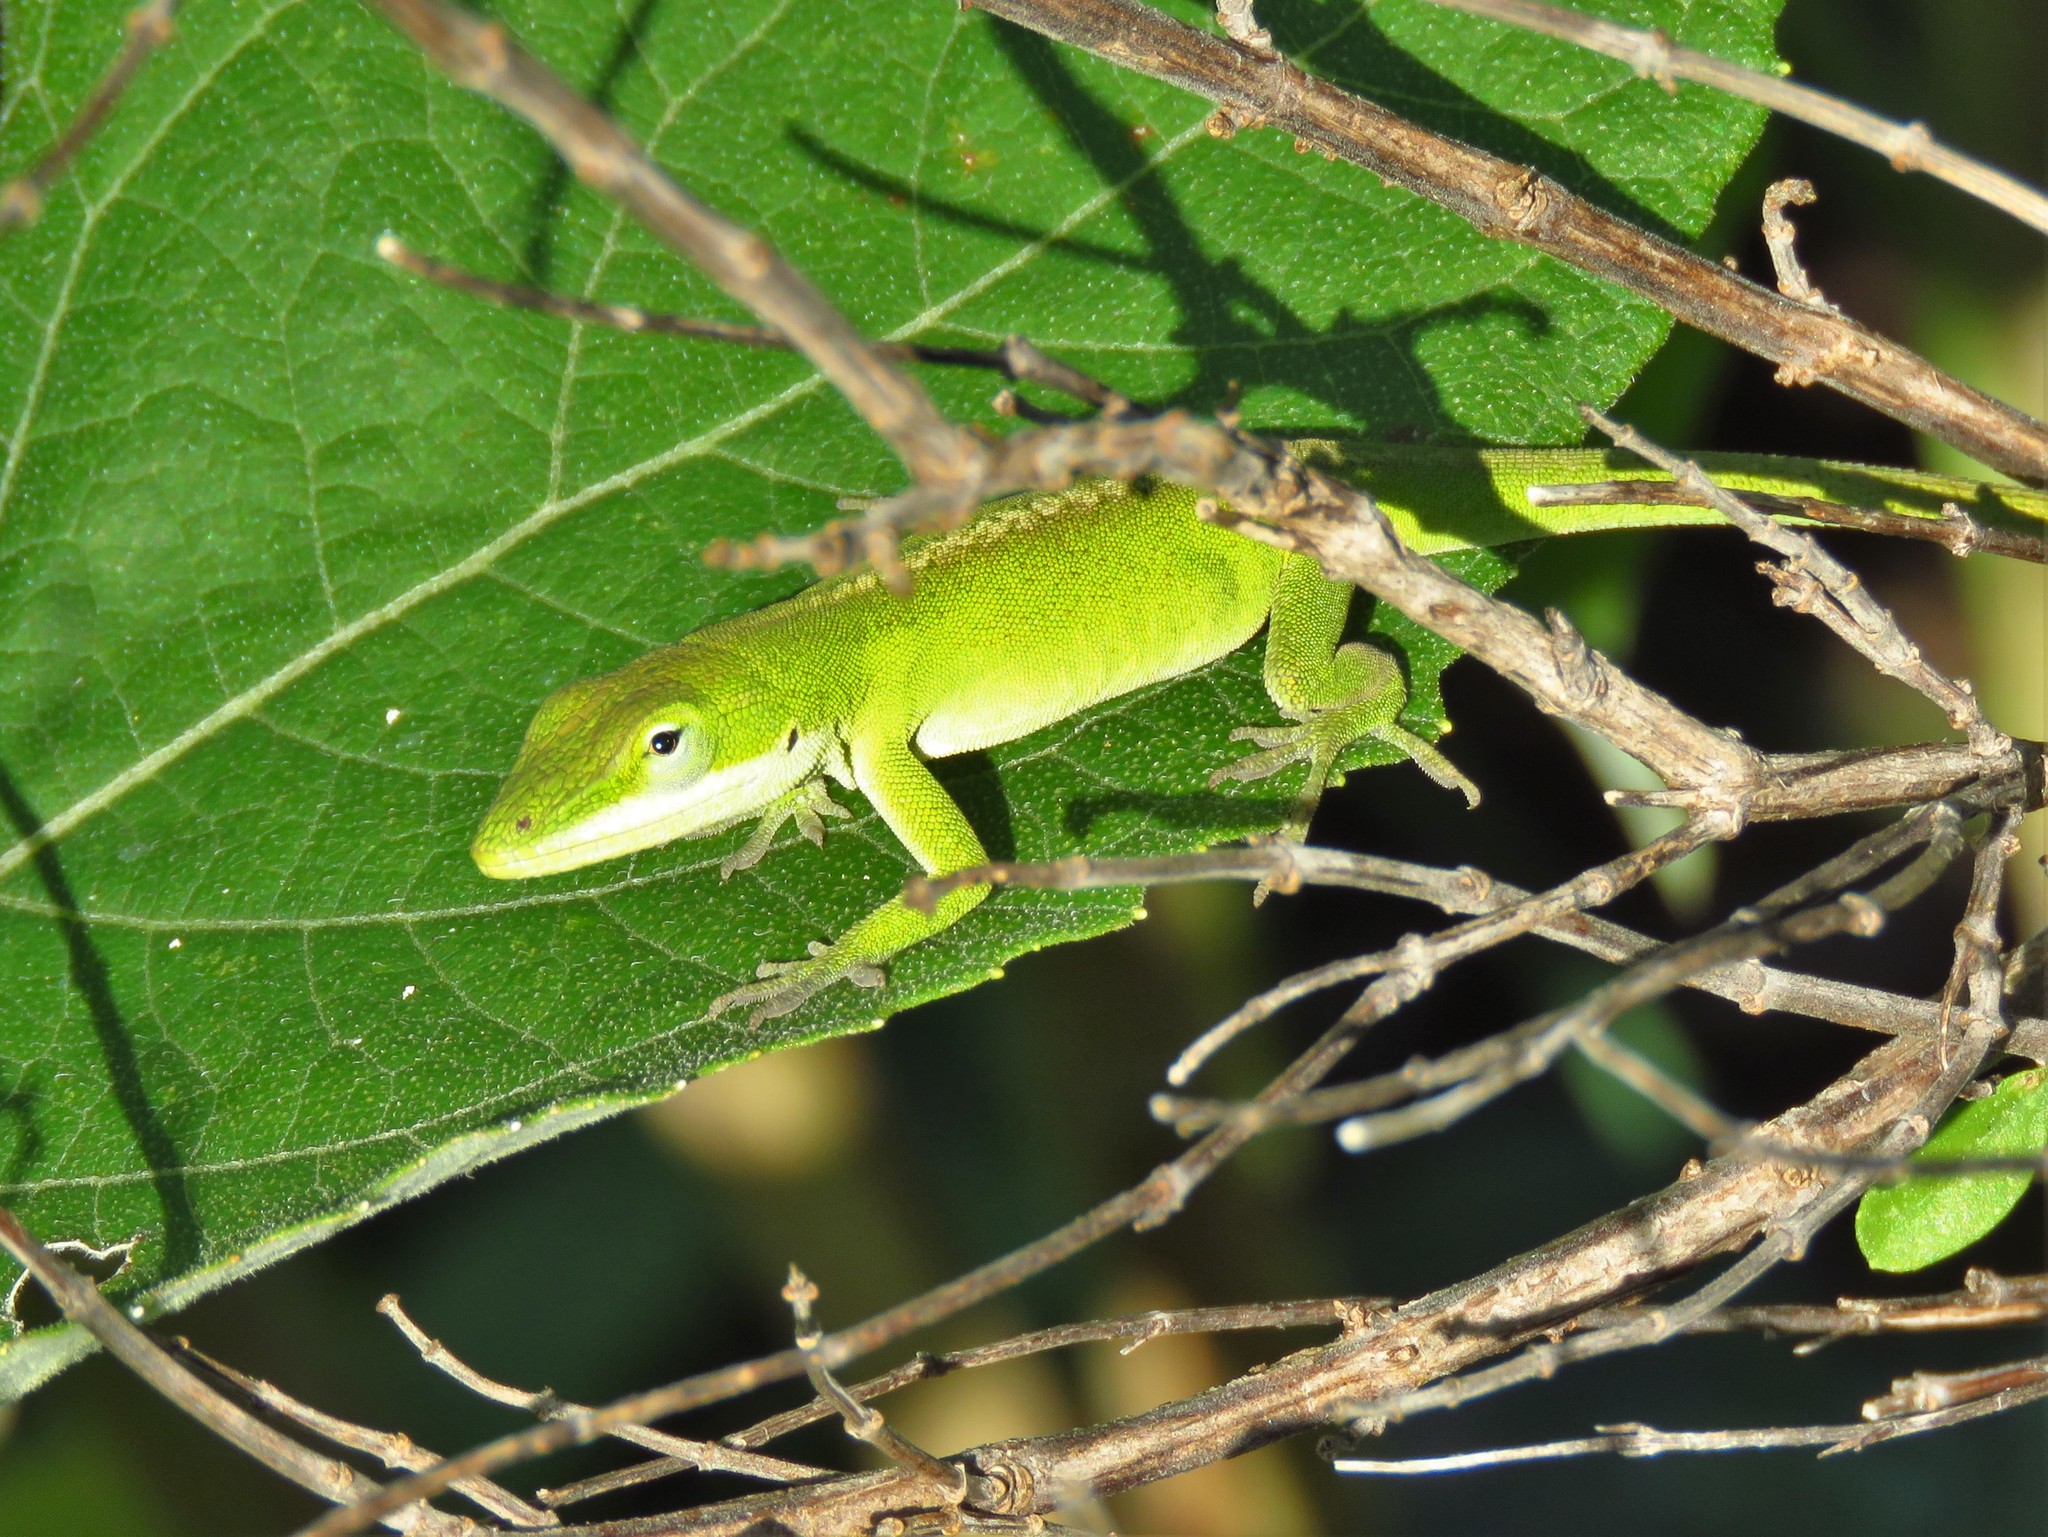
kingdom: Animalia
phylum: Chordata
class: Squamata
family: Dactyloidae
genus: Anolis
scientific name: Anolis carolinensis
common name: Green anole
